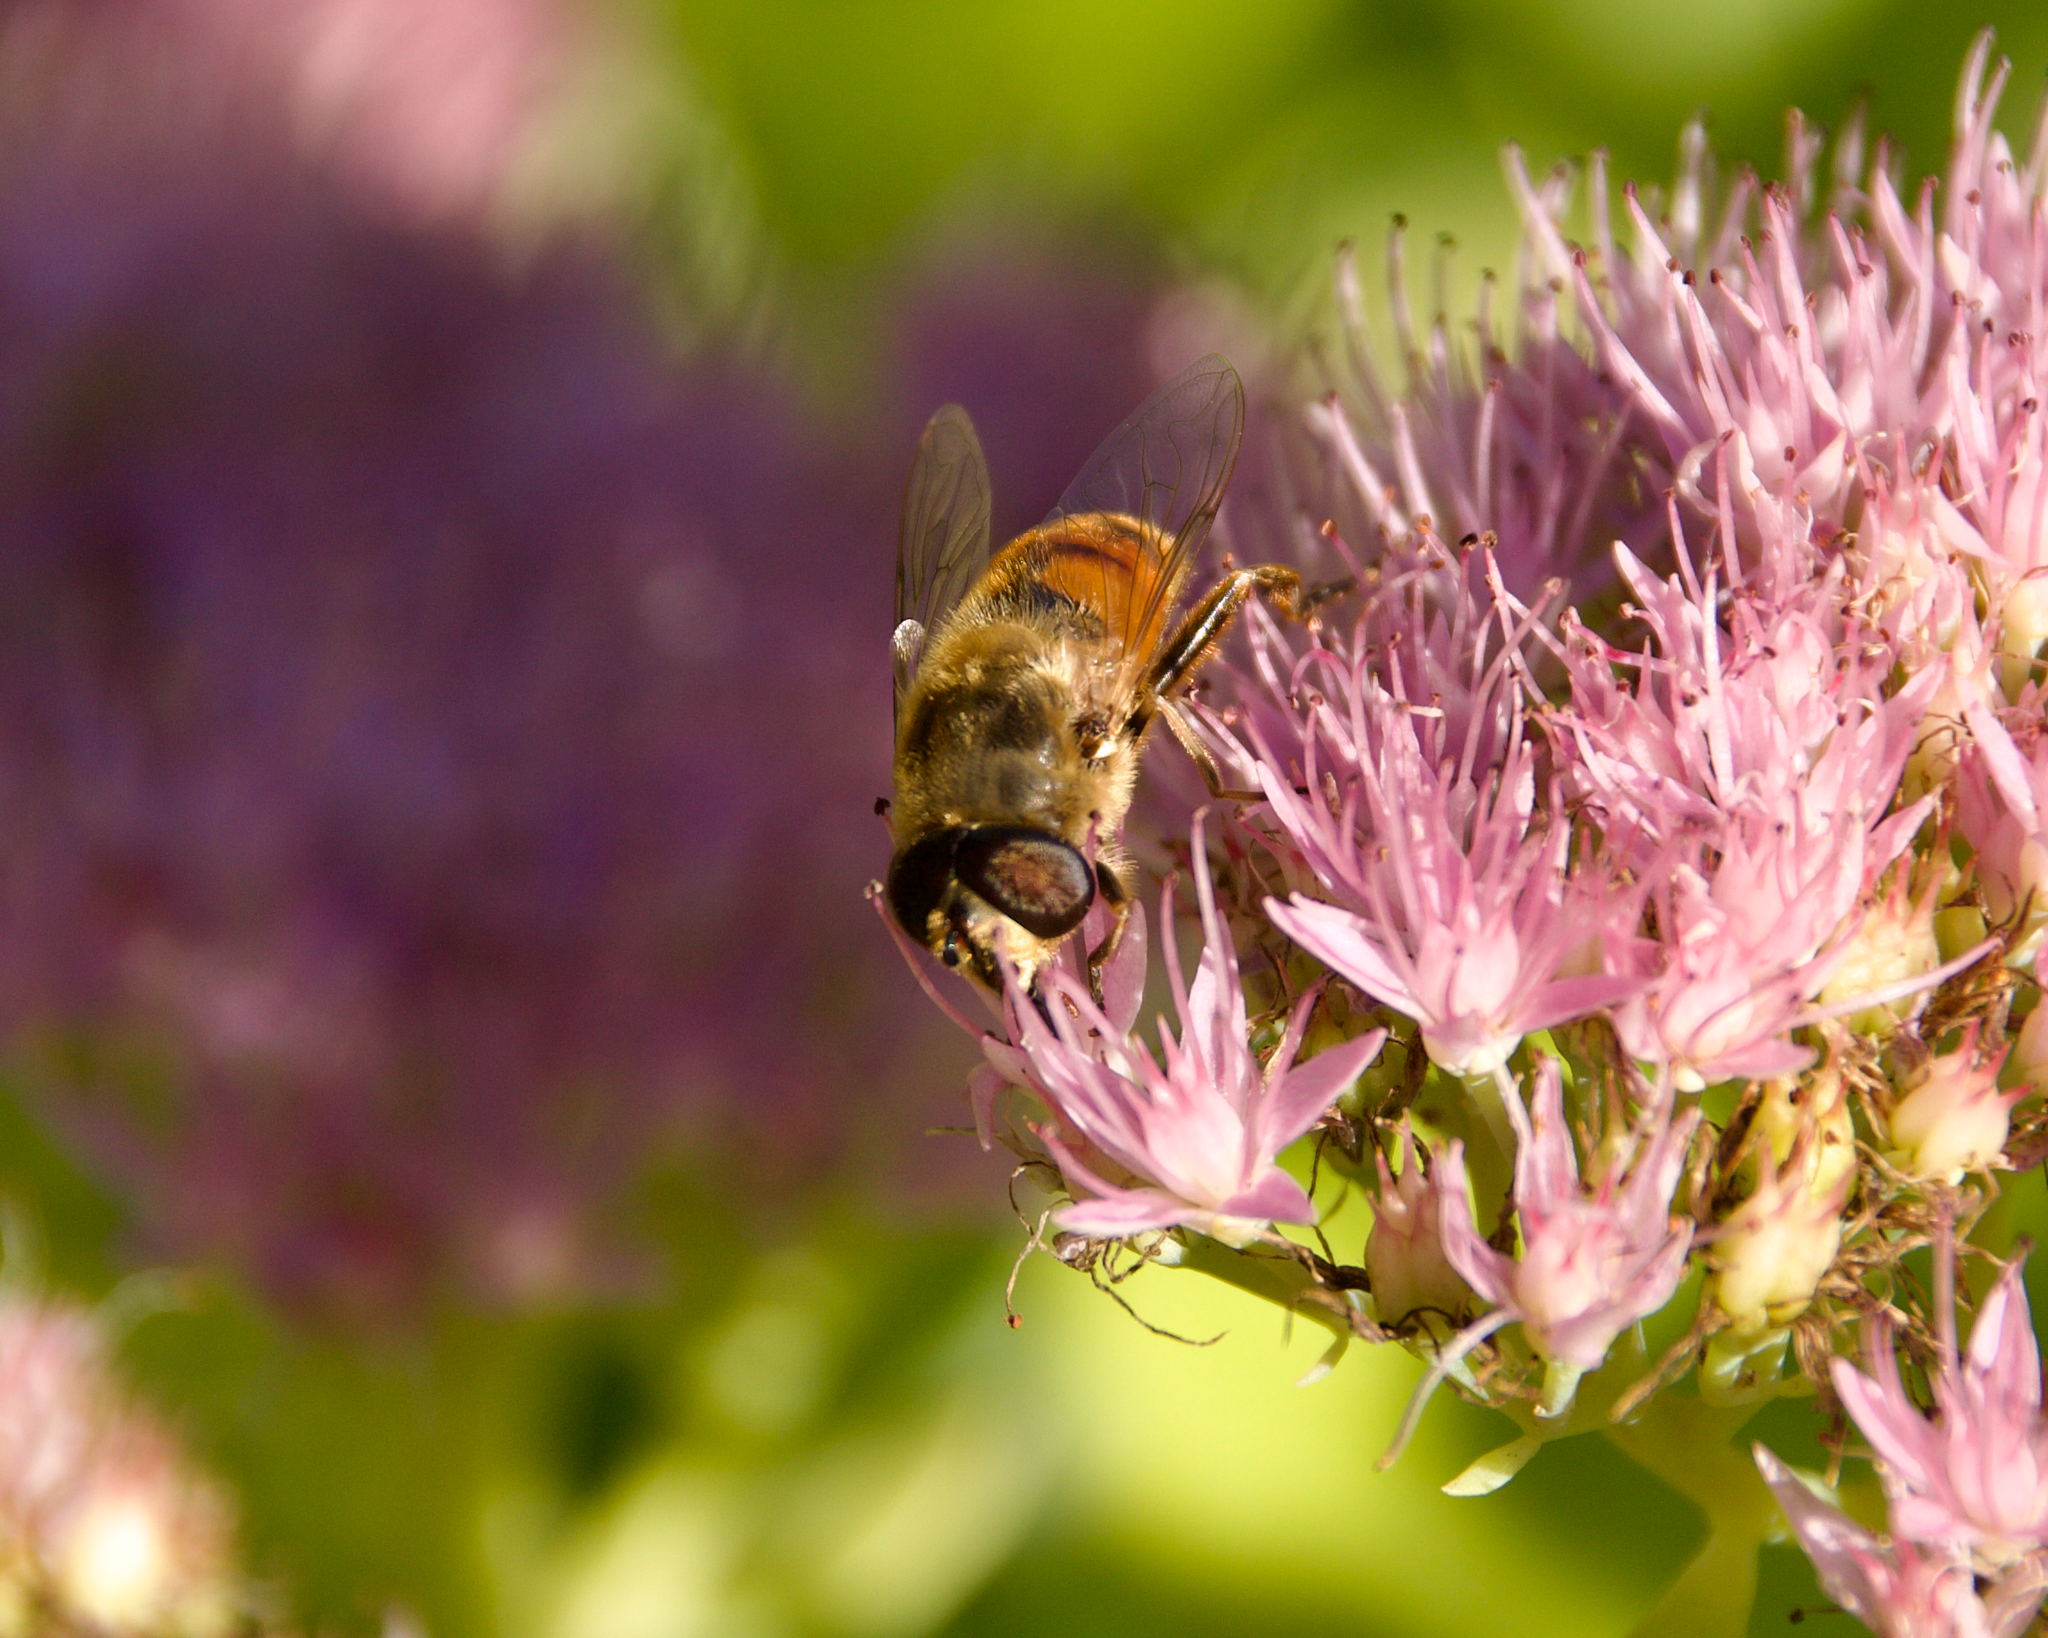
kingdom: Animalia
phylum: Arthropoda
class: Insecta
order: Diptera
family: Syrphidae
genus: Eristalis
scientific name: Eristalis tenax
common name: Drone fly
